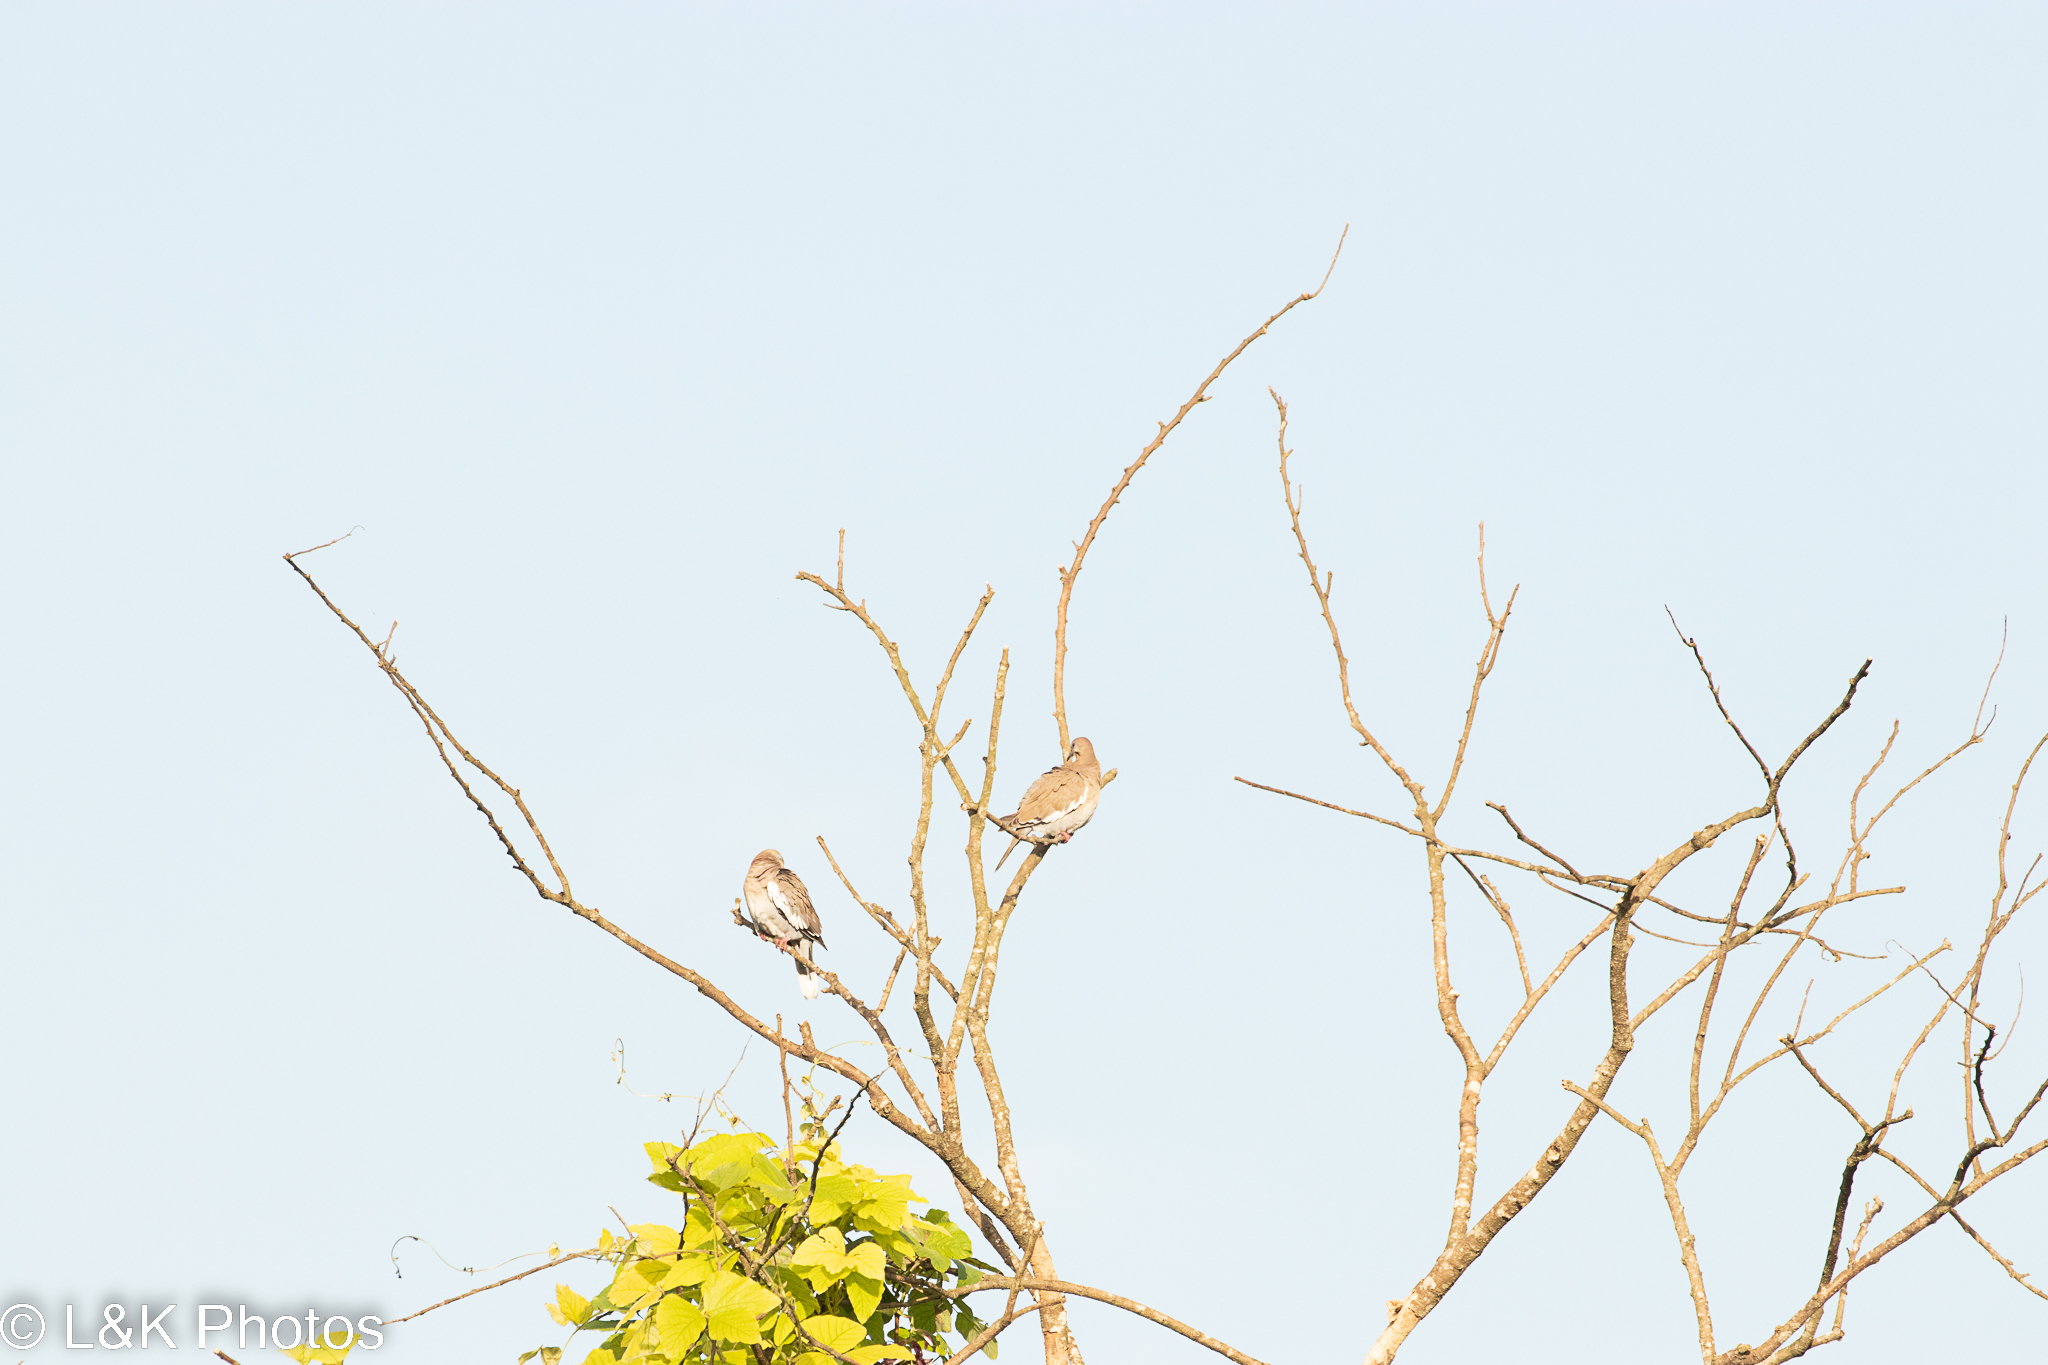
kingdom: Animalia
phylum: Chordata
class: Aves
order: Columbiformes
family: Columbidae
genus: Zenaida
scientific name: Zenaida asiatica
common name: White-winged dove
